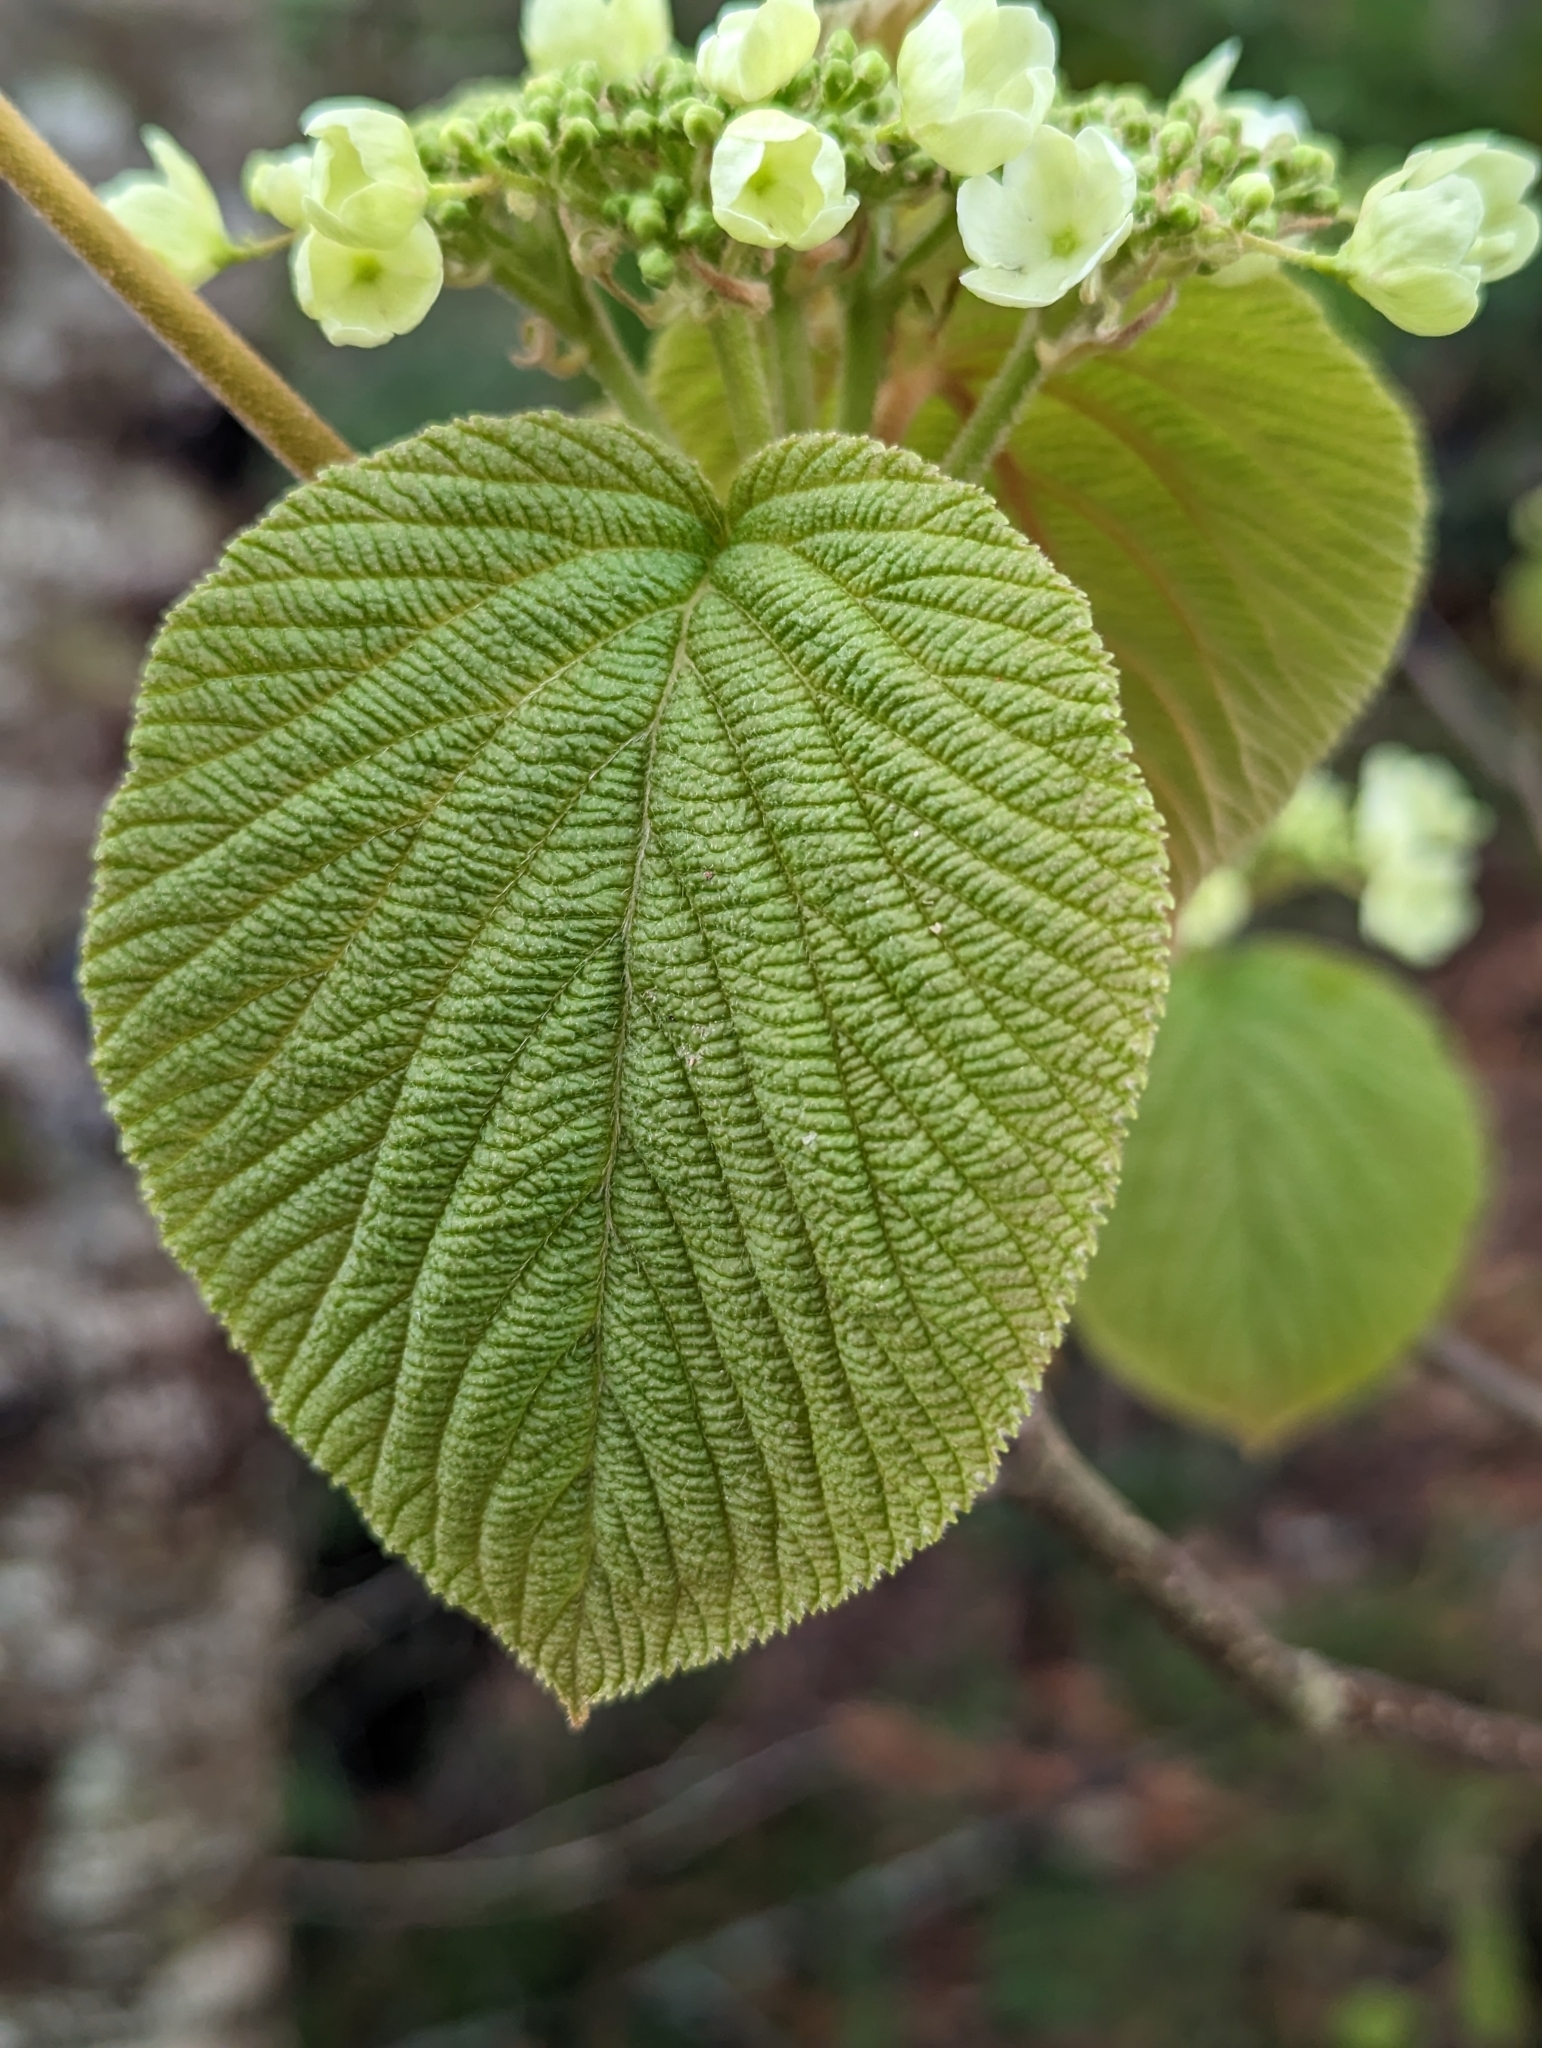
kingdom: Plantae
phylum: Tracheophyta
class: Magnoliopsida
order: Dipsacales
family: Viburnaceae
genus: Viburnum
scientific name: Viburnum lantanoides
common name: Hobblebush
